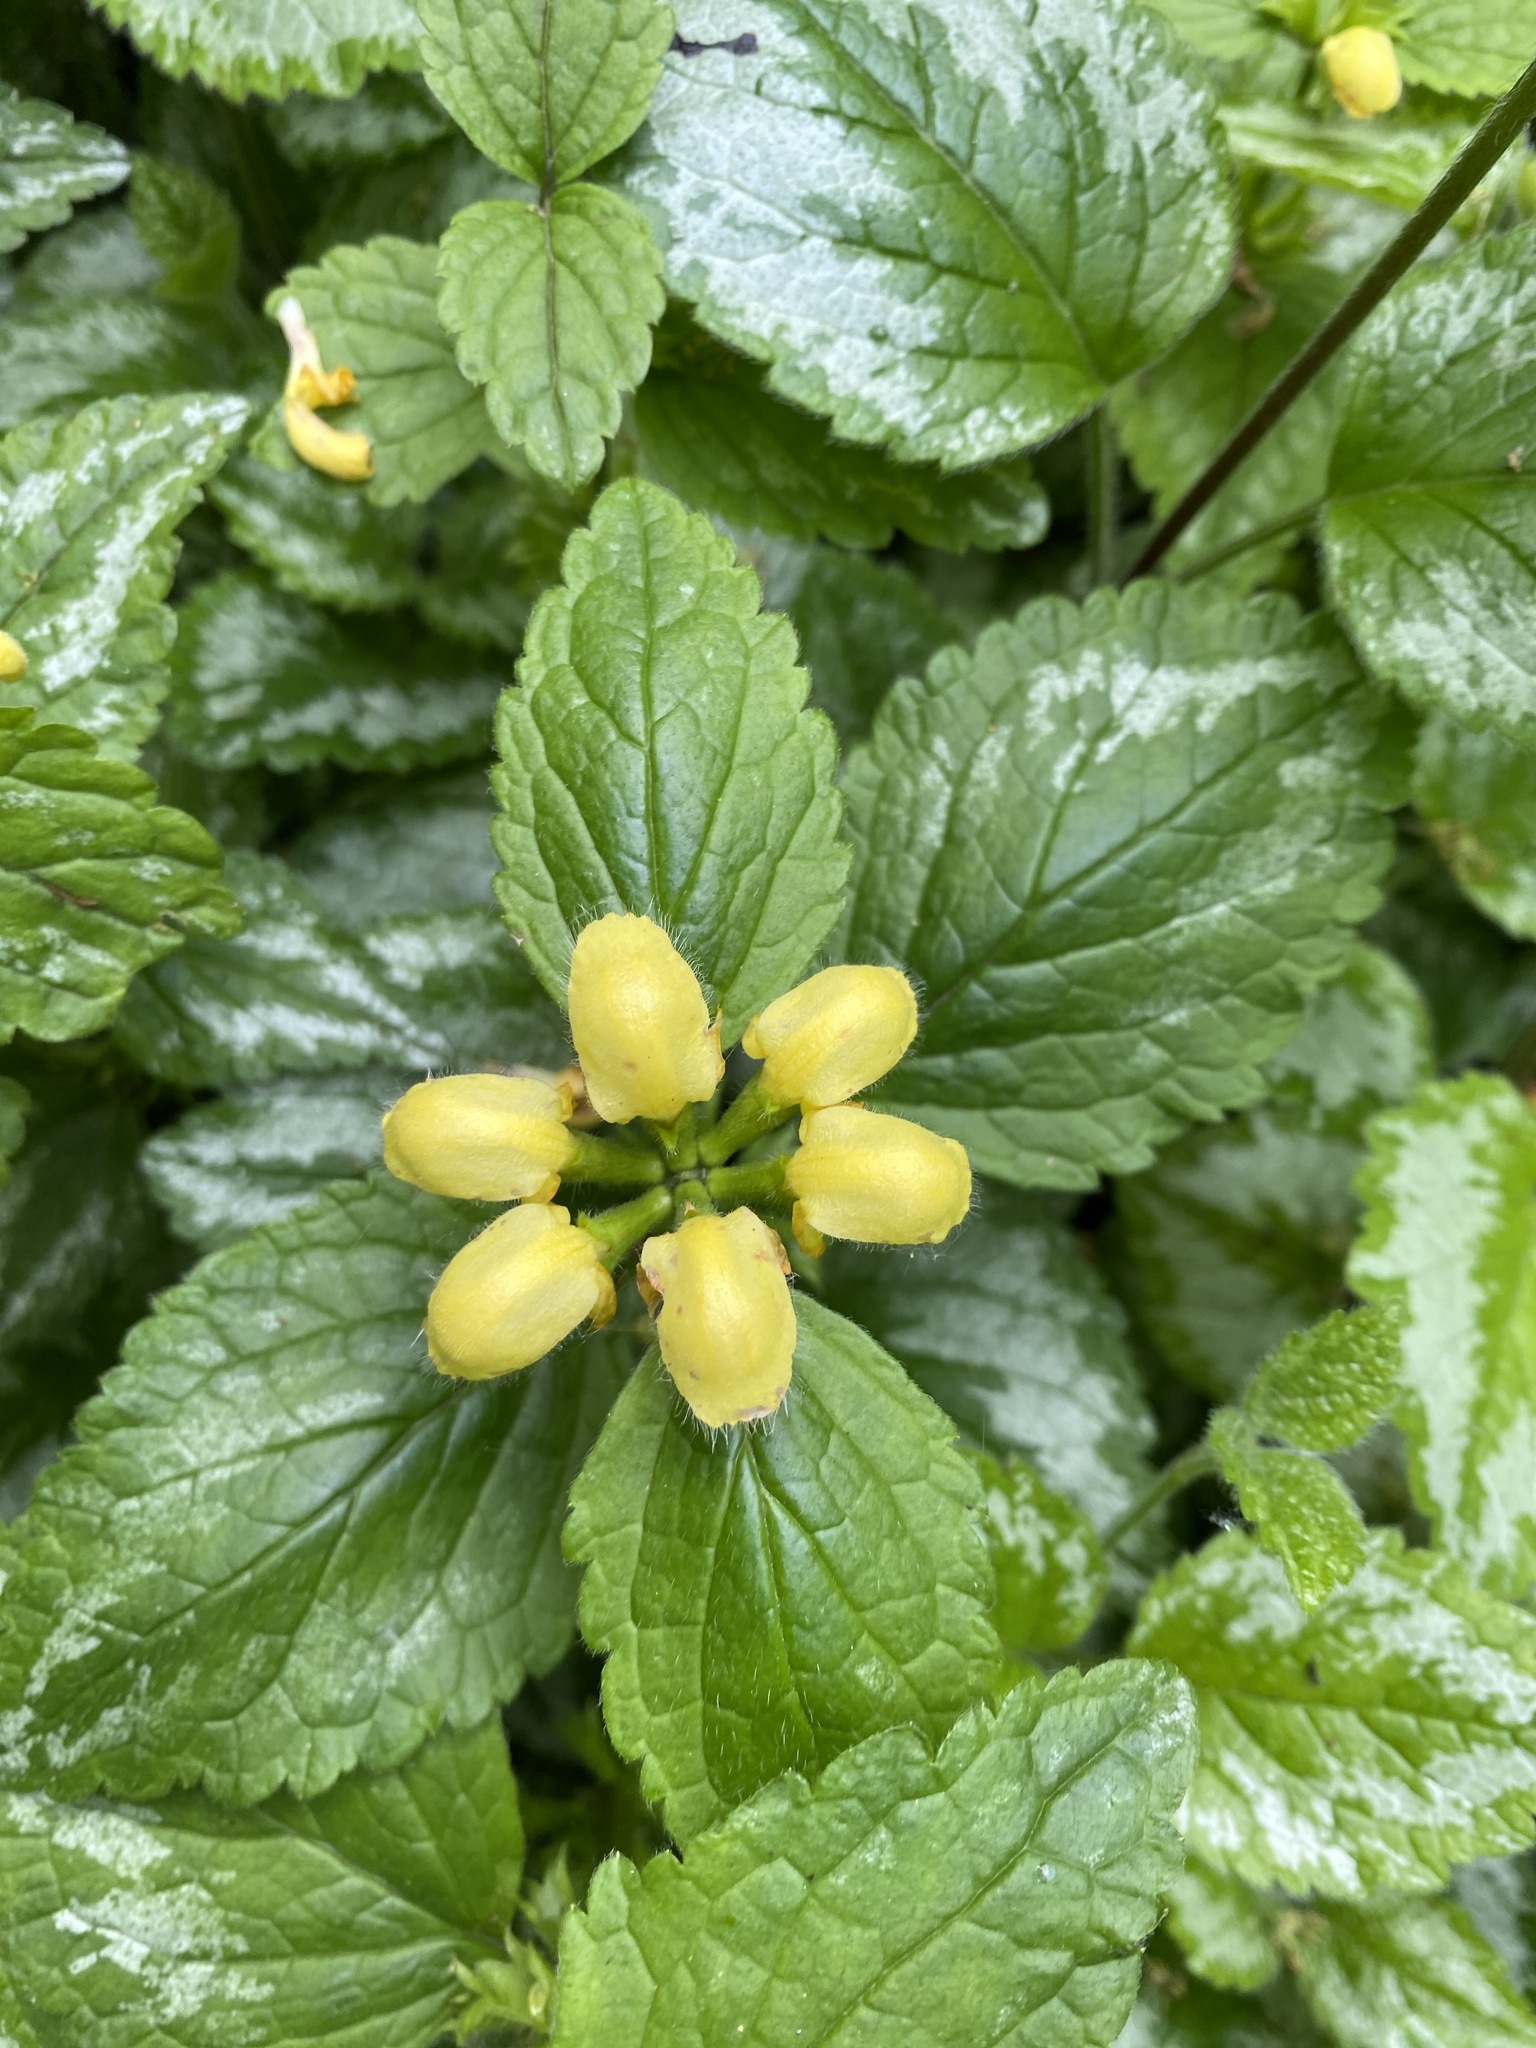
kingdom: Plantae
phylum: Tracheophyta
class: Magnoliopsida
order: Lamiales
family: Lamiaceae
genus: Lamium
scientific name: Lamium galeobdolon
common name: Yellow archangel
